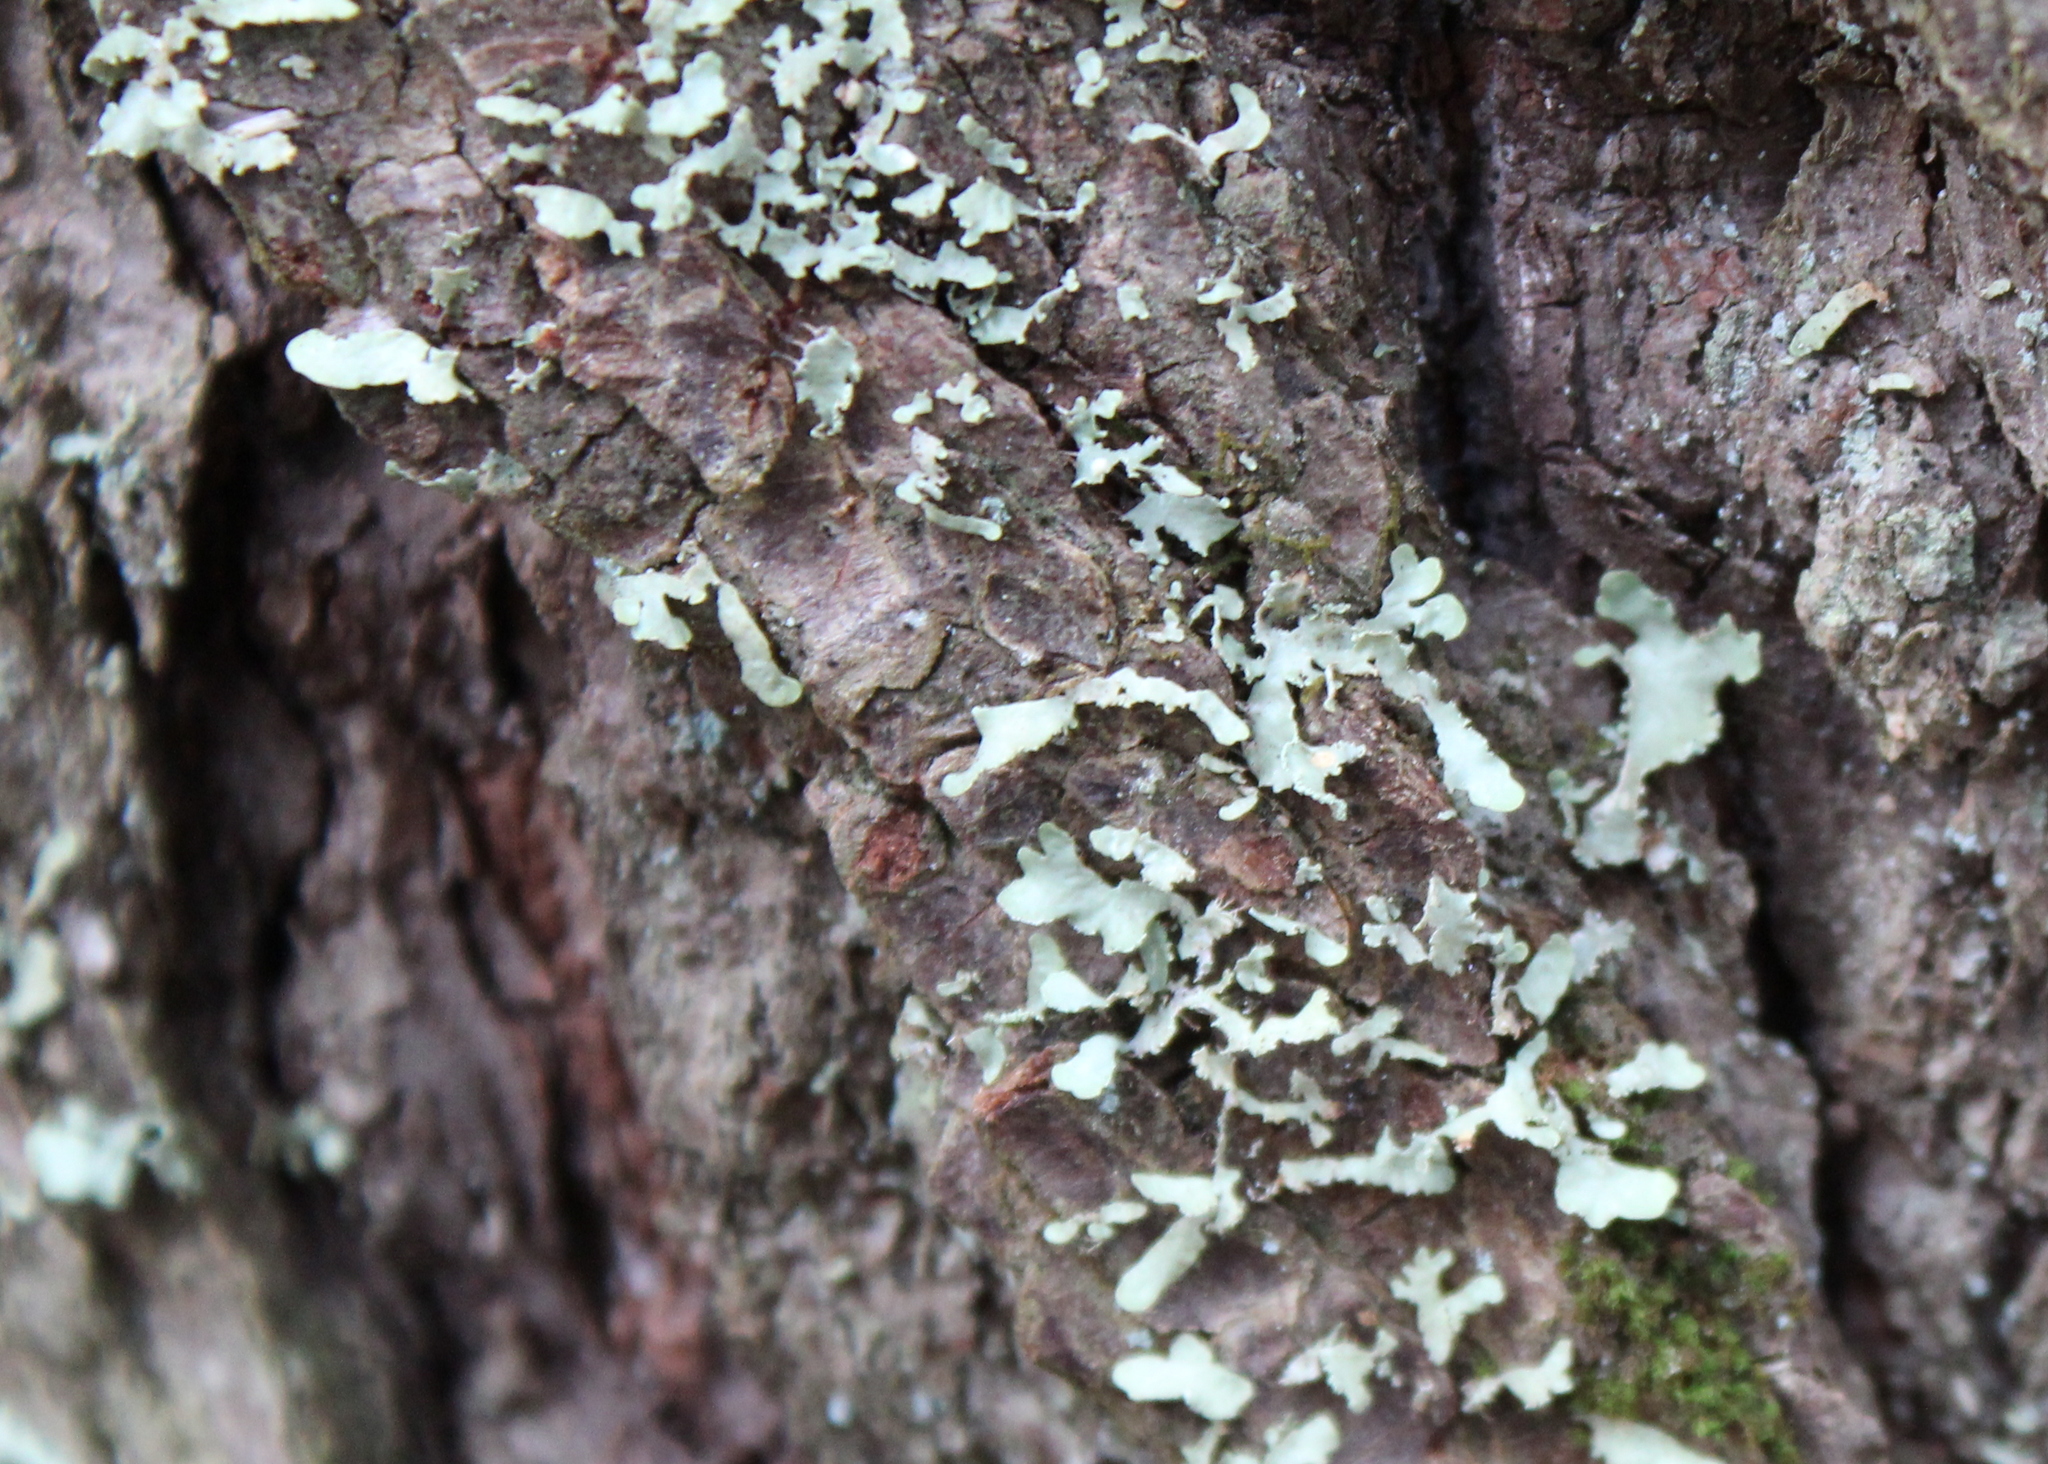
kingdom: Fungi
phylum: Ascomycota
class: Lecanoromycetes
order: Lecanorales
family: Parmeliaceae
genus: Usnocetraria
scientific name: Usnocetraria oakesiana
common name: Yellow ribbon lichen
